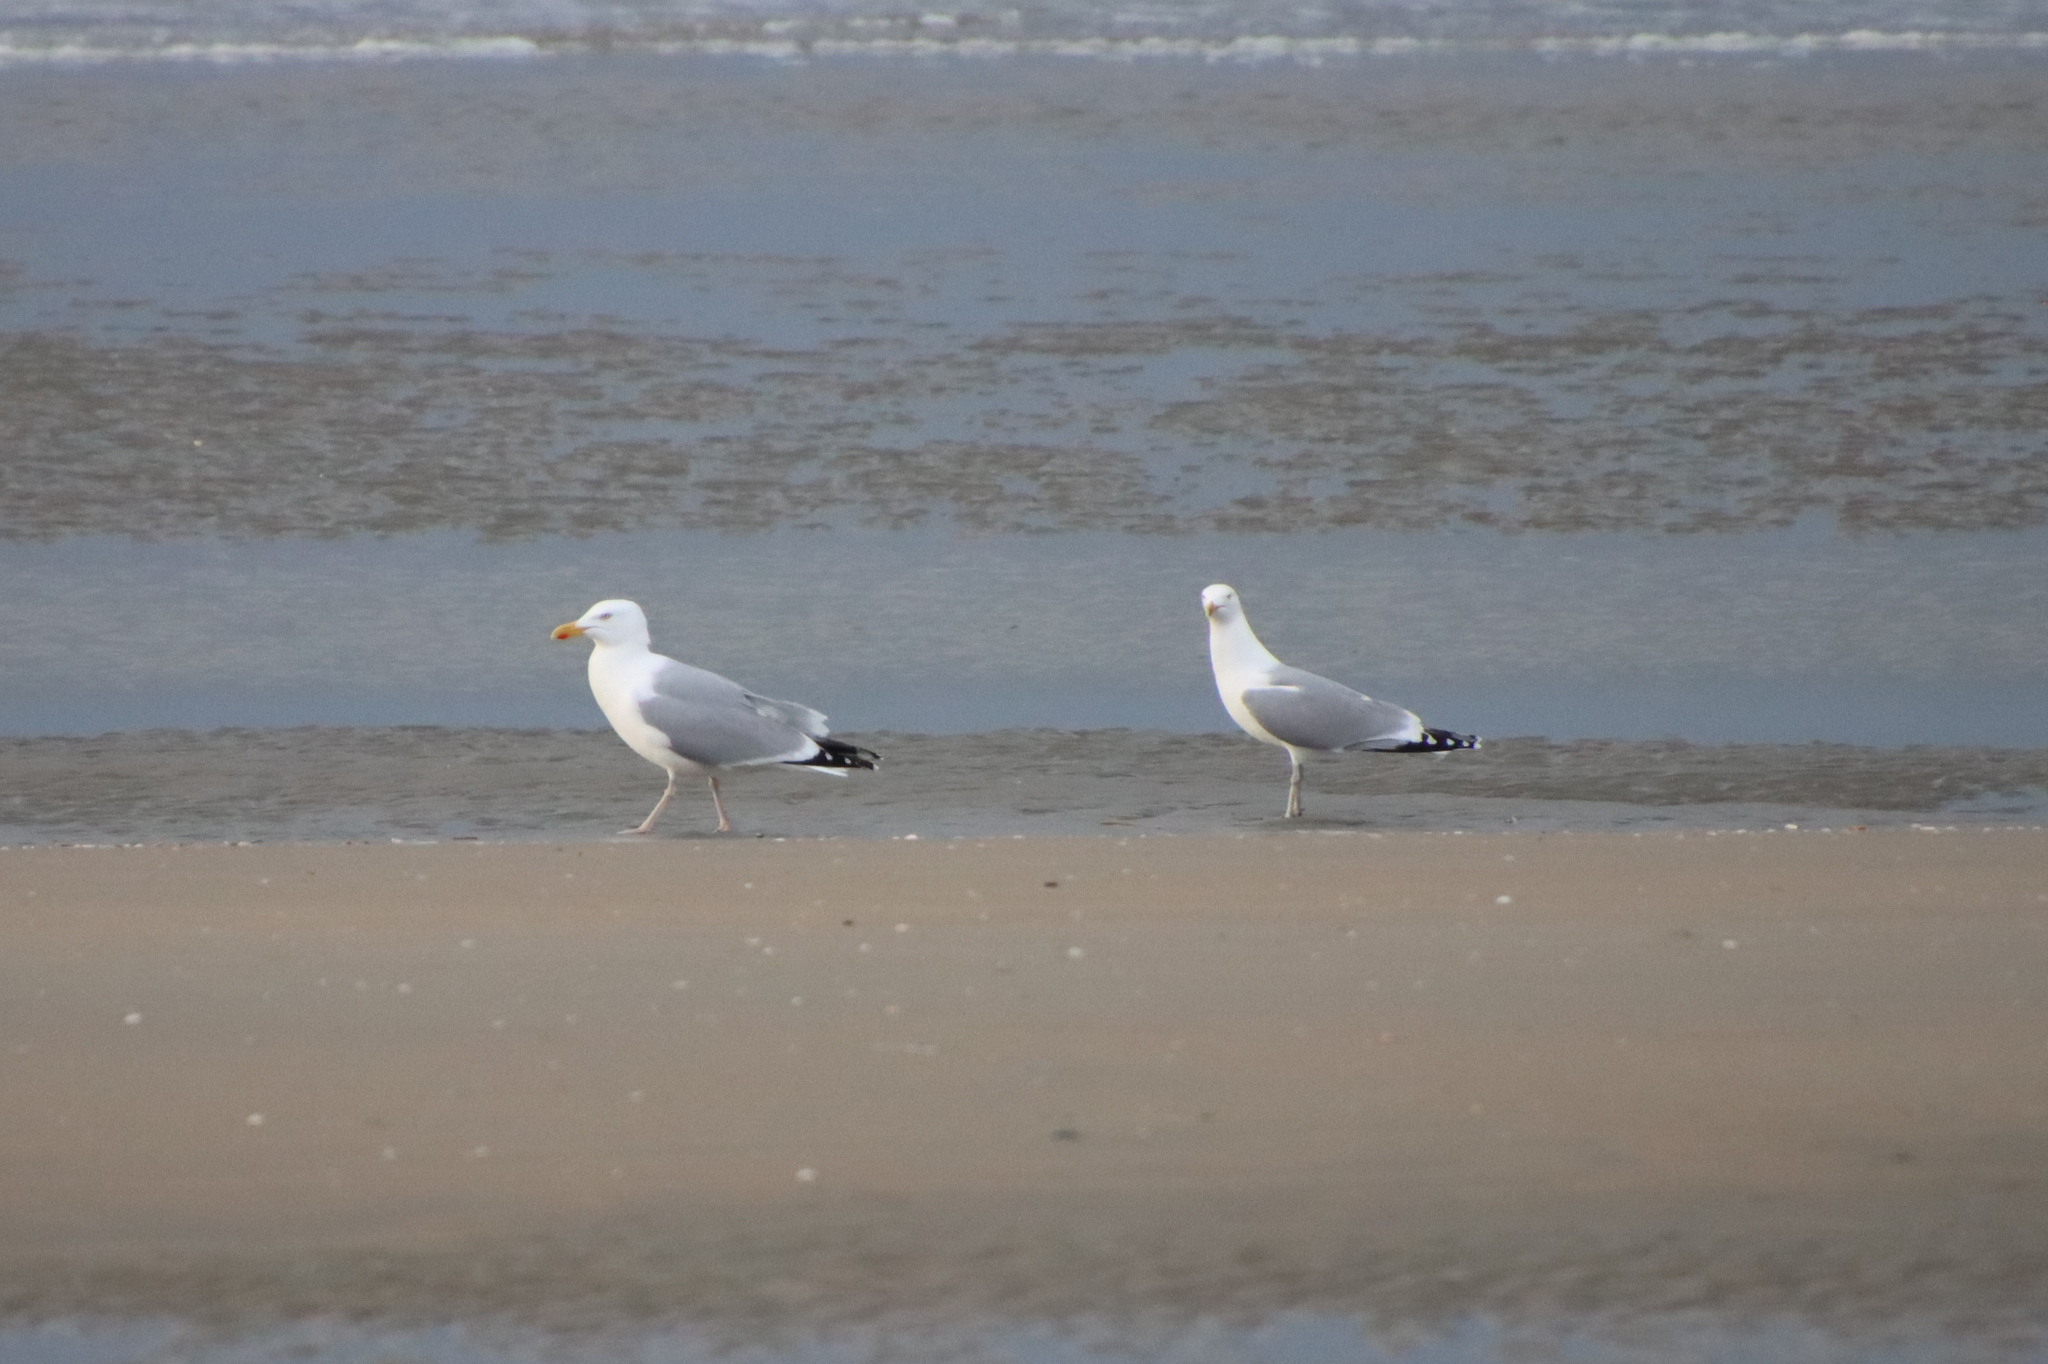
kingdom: Animalia
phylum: Chordata
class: Aves
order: Charadriiformes
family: Laridae
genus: Larus
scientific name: Larus argentatus
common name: Herring gull
